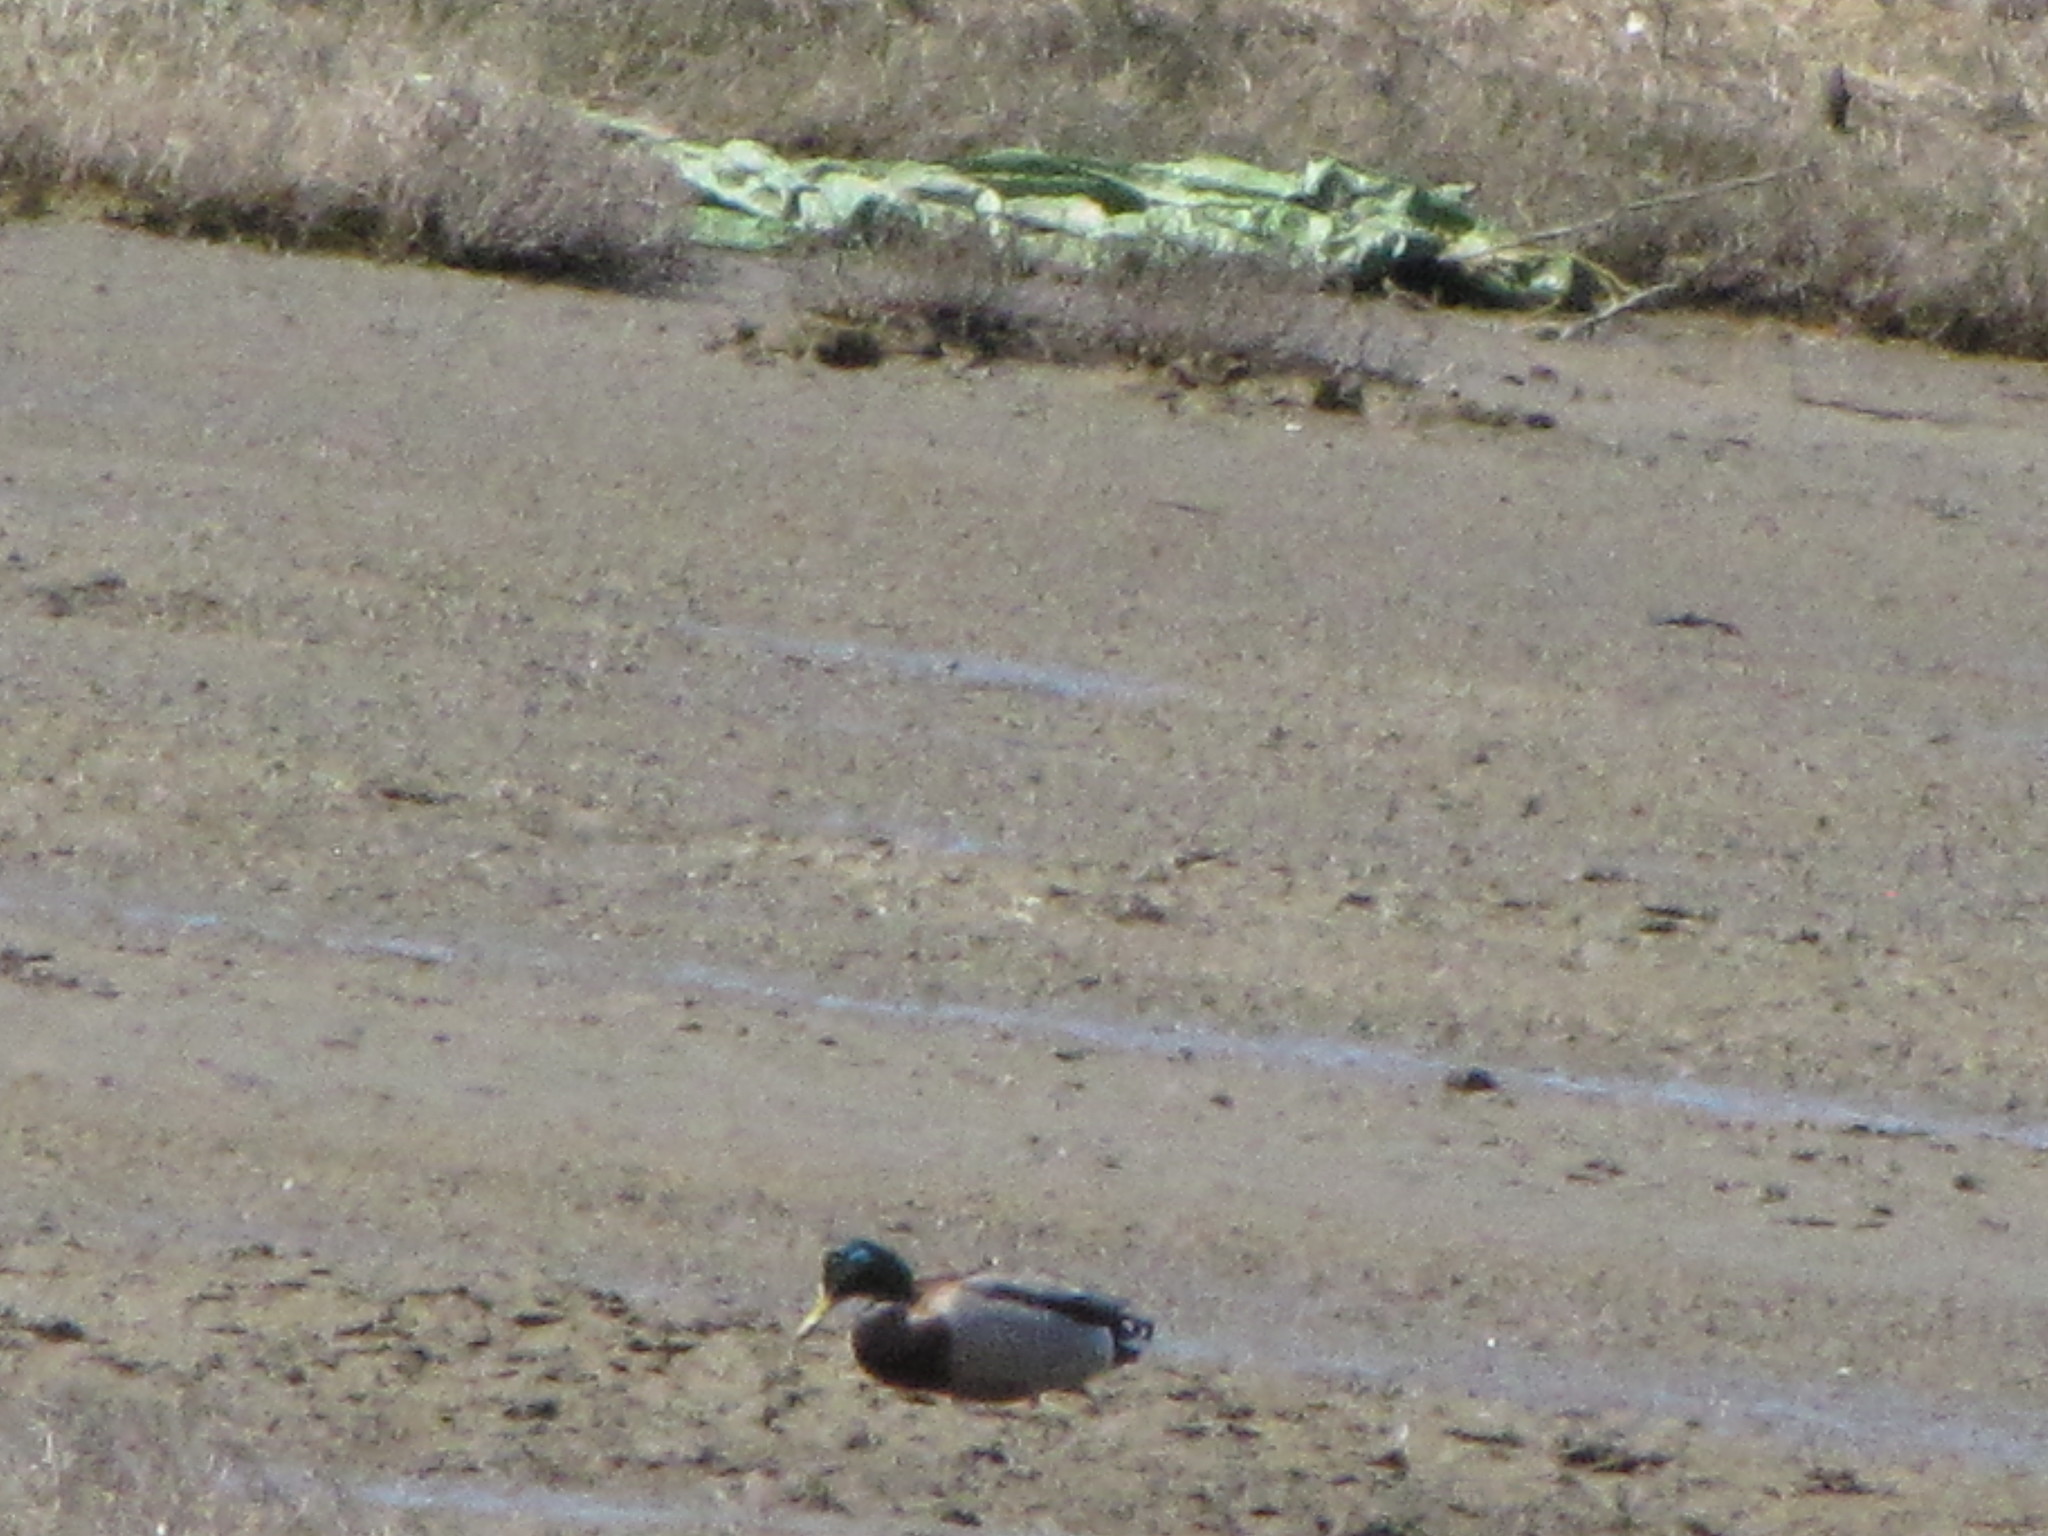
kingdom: Animalia
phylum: Chordata
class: Aves
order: Anseriformes
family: Anatidae
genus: Anas
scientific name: Anas platyrhynchos
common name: Mallard
